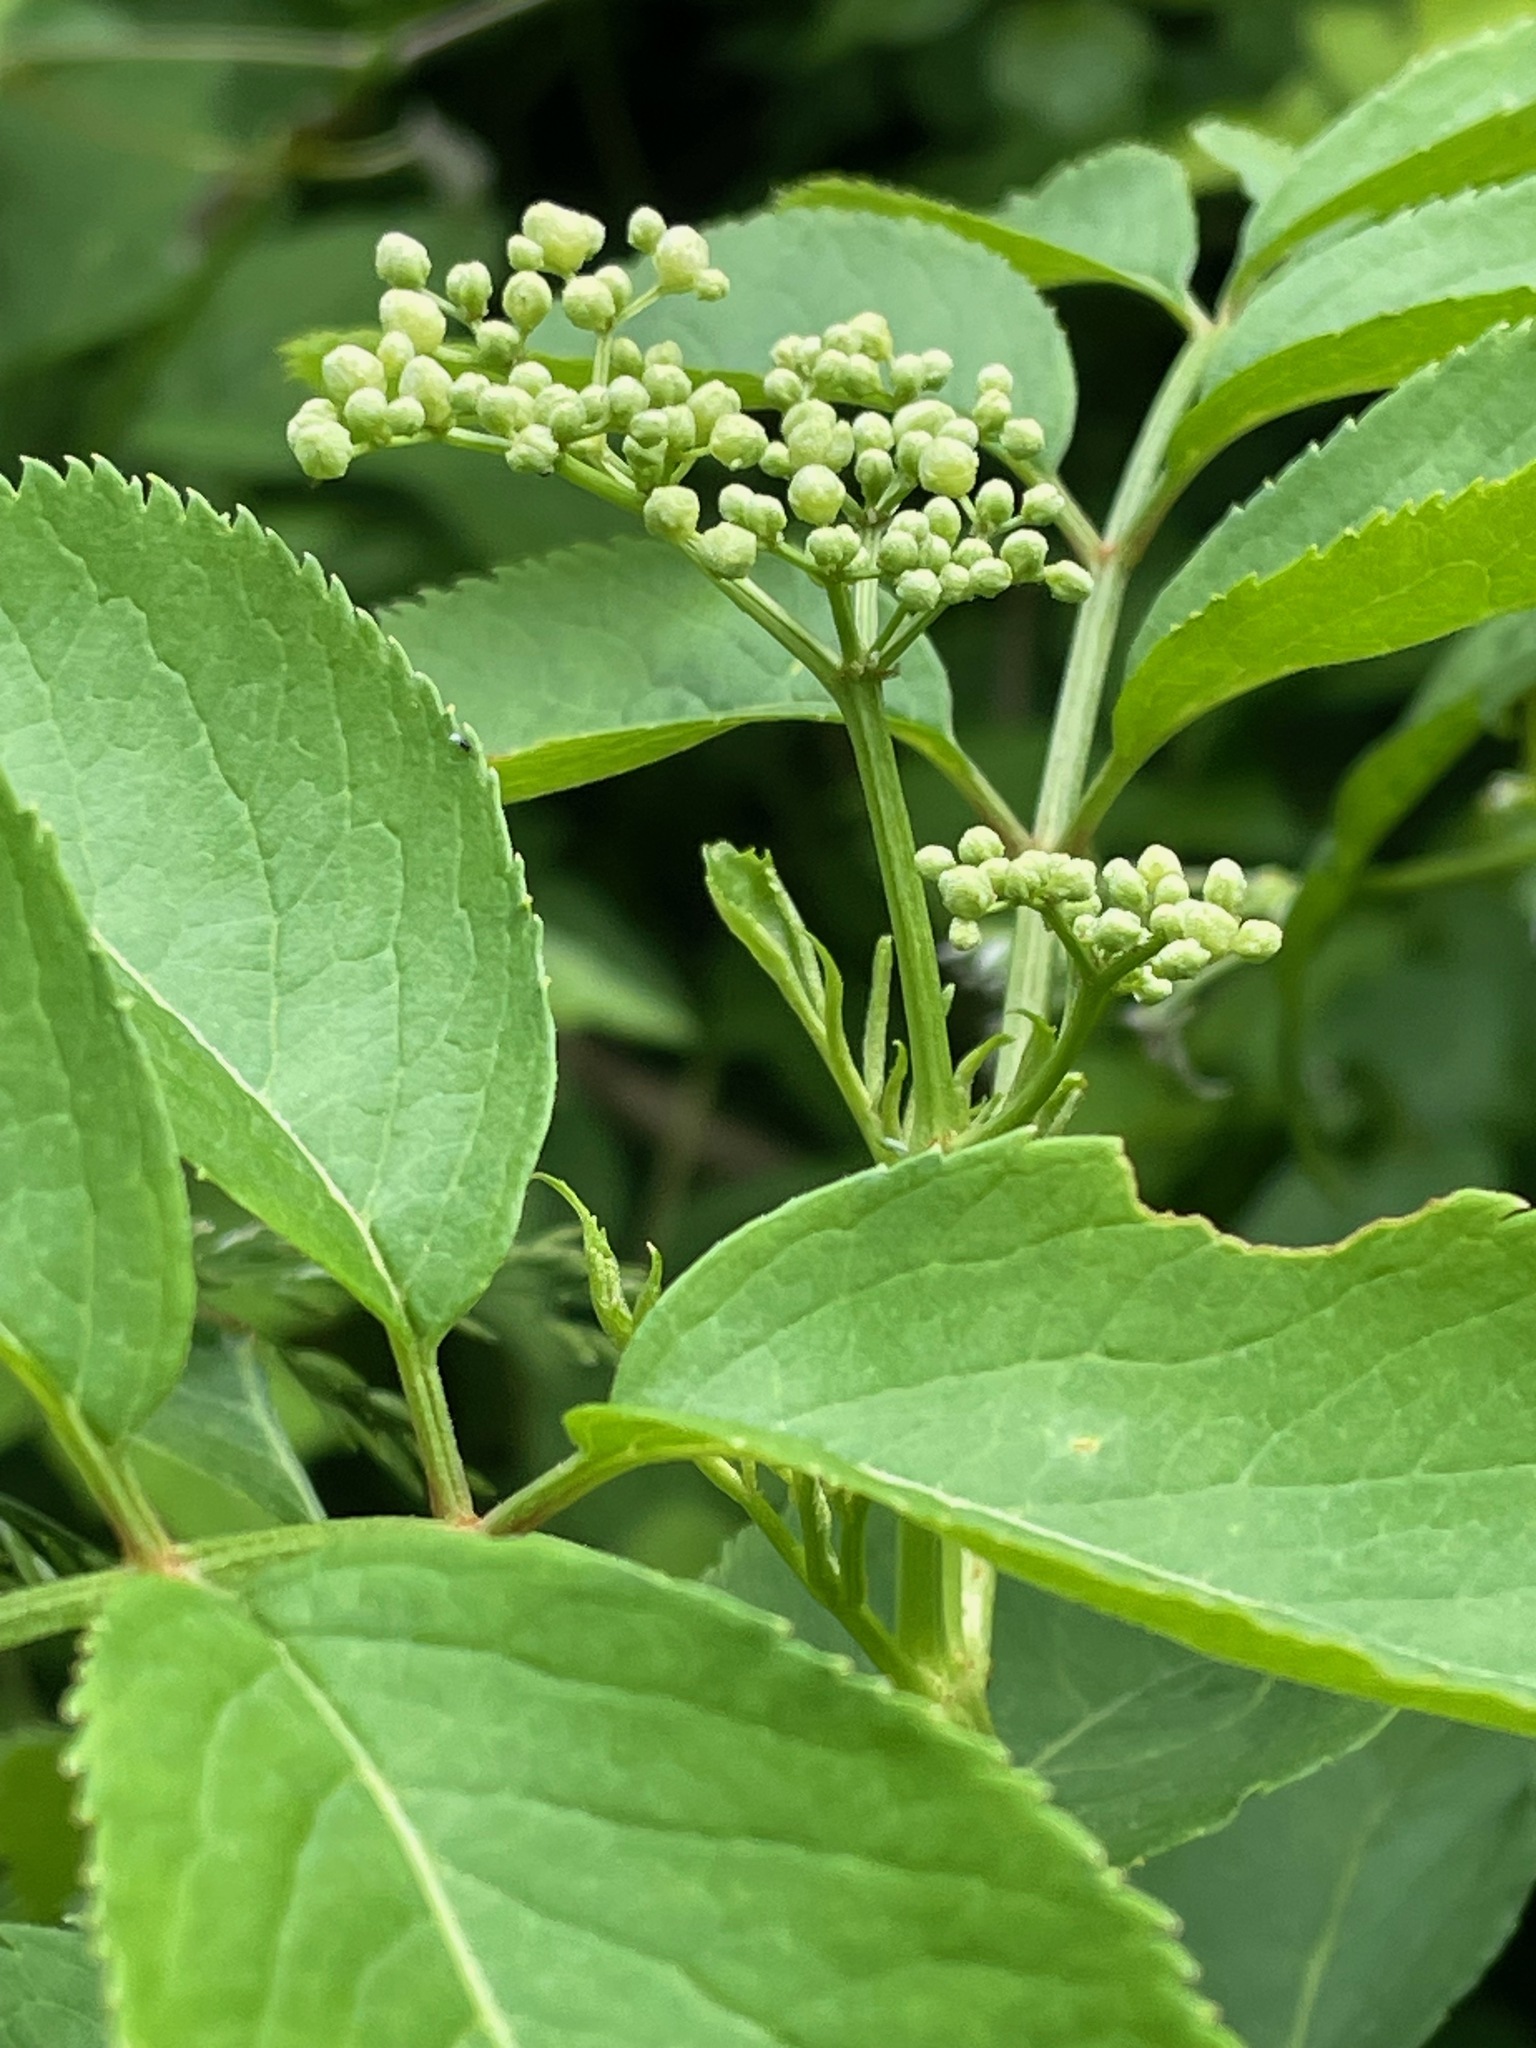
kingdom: Plantae
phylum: Tracheophyta
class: Magnoliopsida
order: Dipsacales
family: Viburnaceae
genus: Sambucus
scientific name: Sambucus canadensis
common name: American elder
